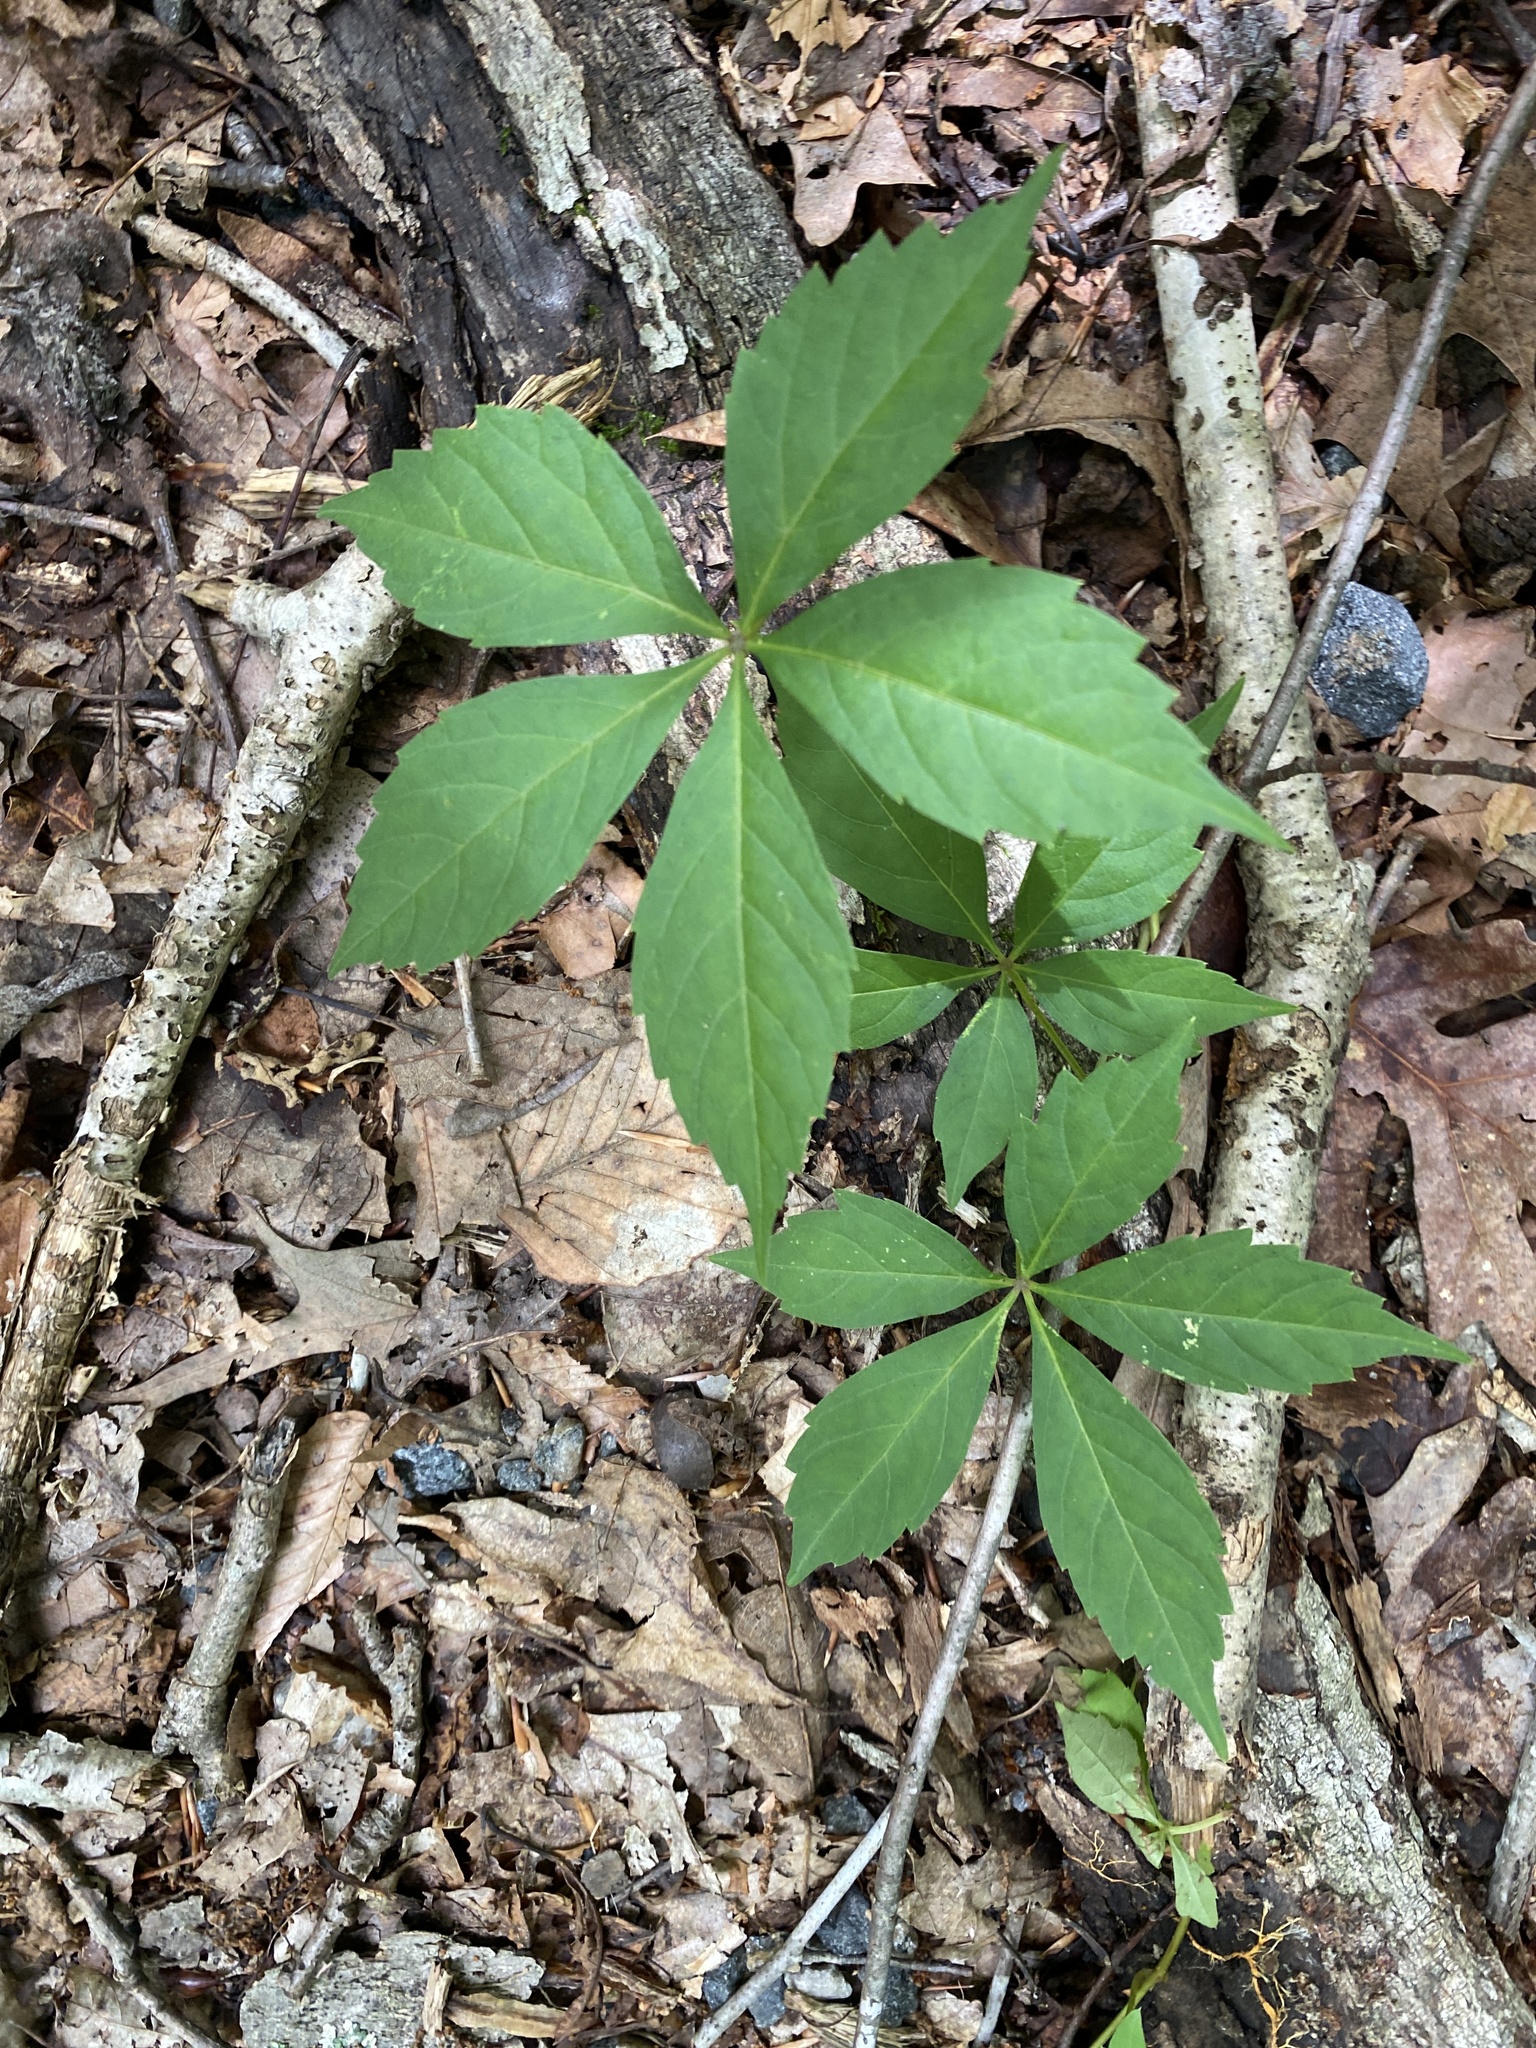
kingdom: Plantae
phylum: Tracheophyta
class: Magnoliopsida
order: Vitales
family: Vitaceae
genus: Parthenocissus
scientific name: Parthenocissus quinquefolia
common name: Virginia-creeper
